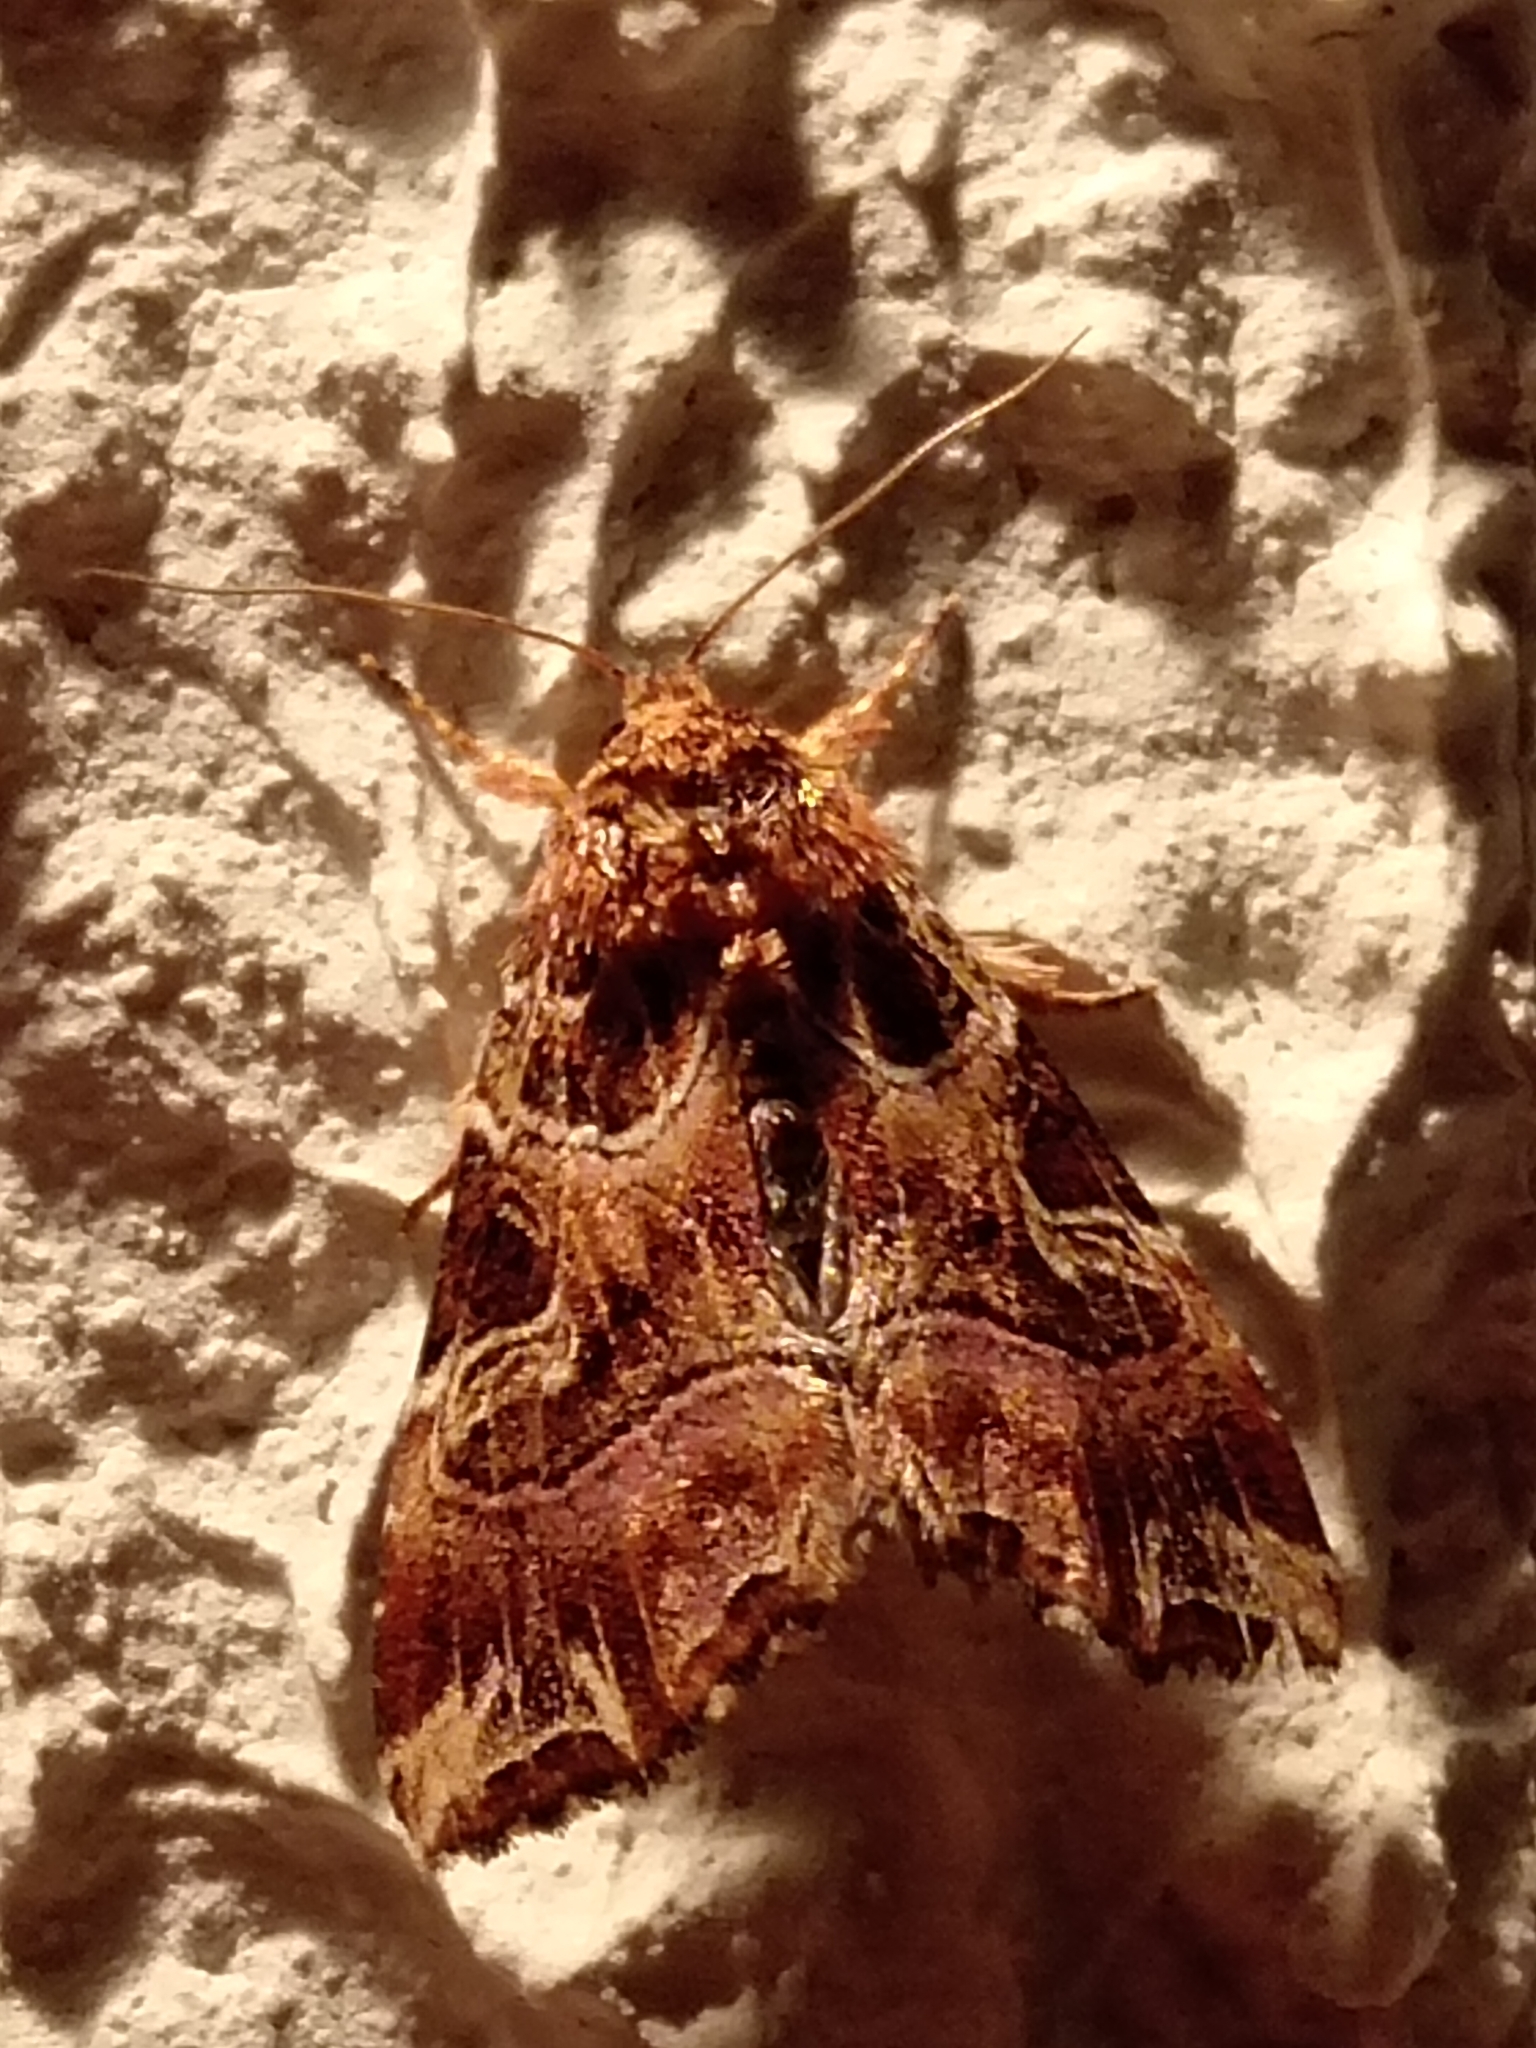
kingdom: Animalia
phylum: Arthropoda
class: Insecta
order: Lepidoptera
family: Noctuidae
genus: Callopistria
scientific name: Callopistria juventina
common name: Latin
